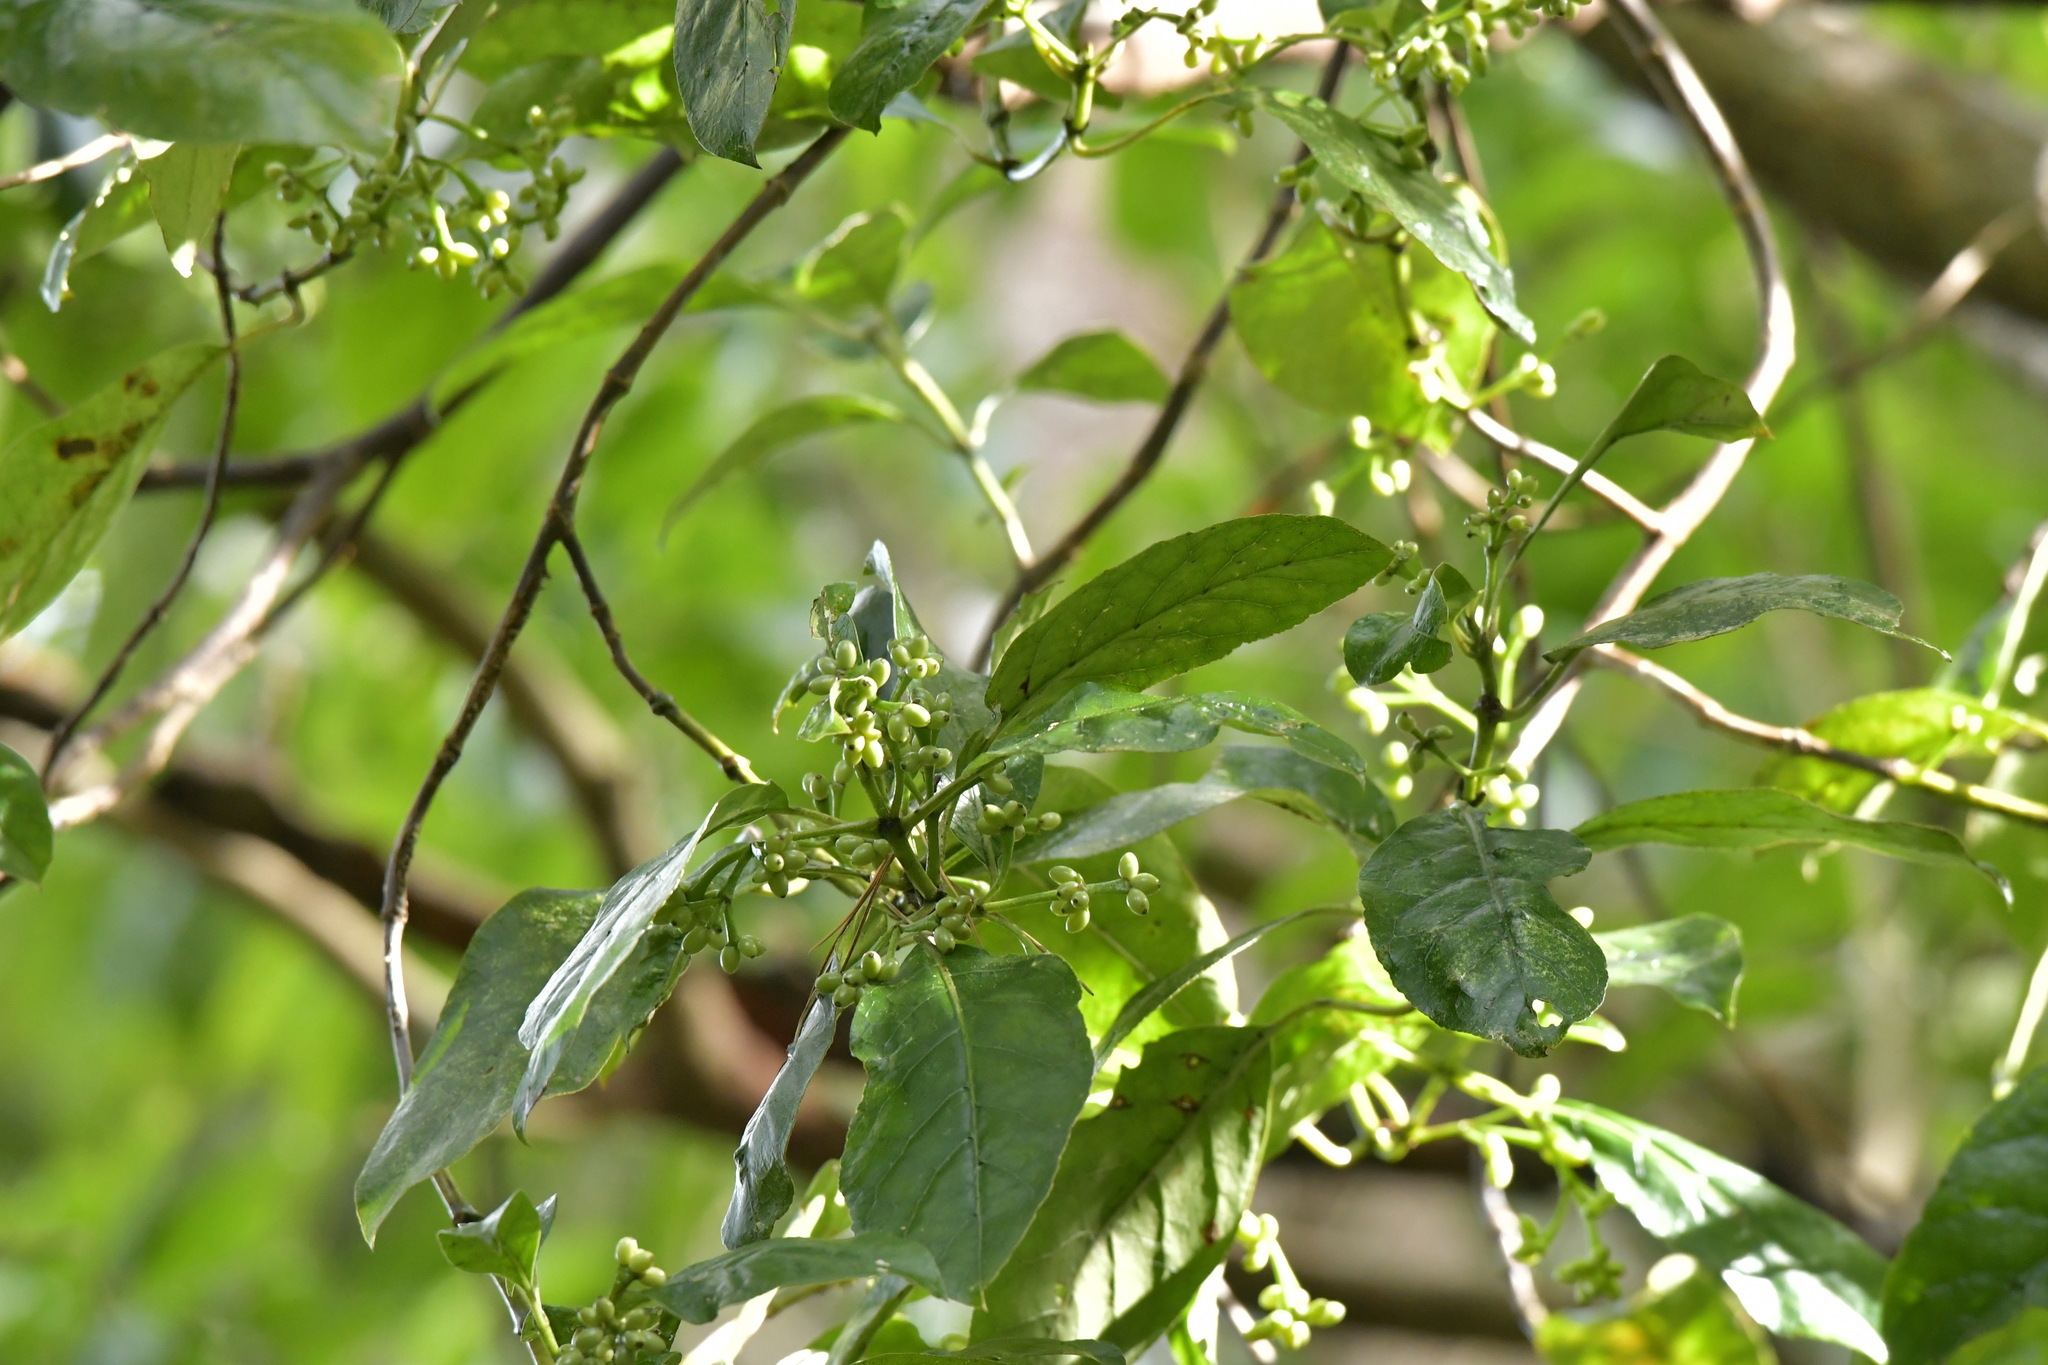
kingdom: Plantae
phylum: Tracheophyta
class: Magnoliopsida
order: Gentianales
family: Rubiaceae
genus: Coprosma
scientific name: Coprosma autumnalis
